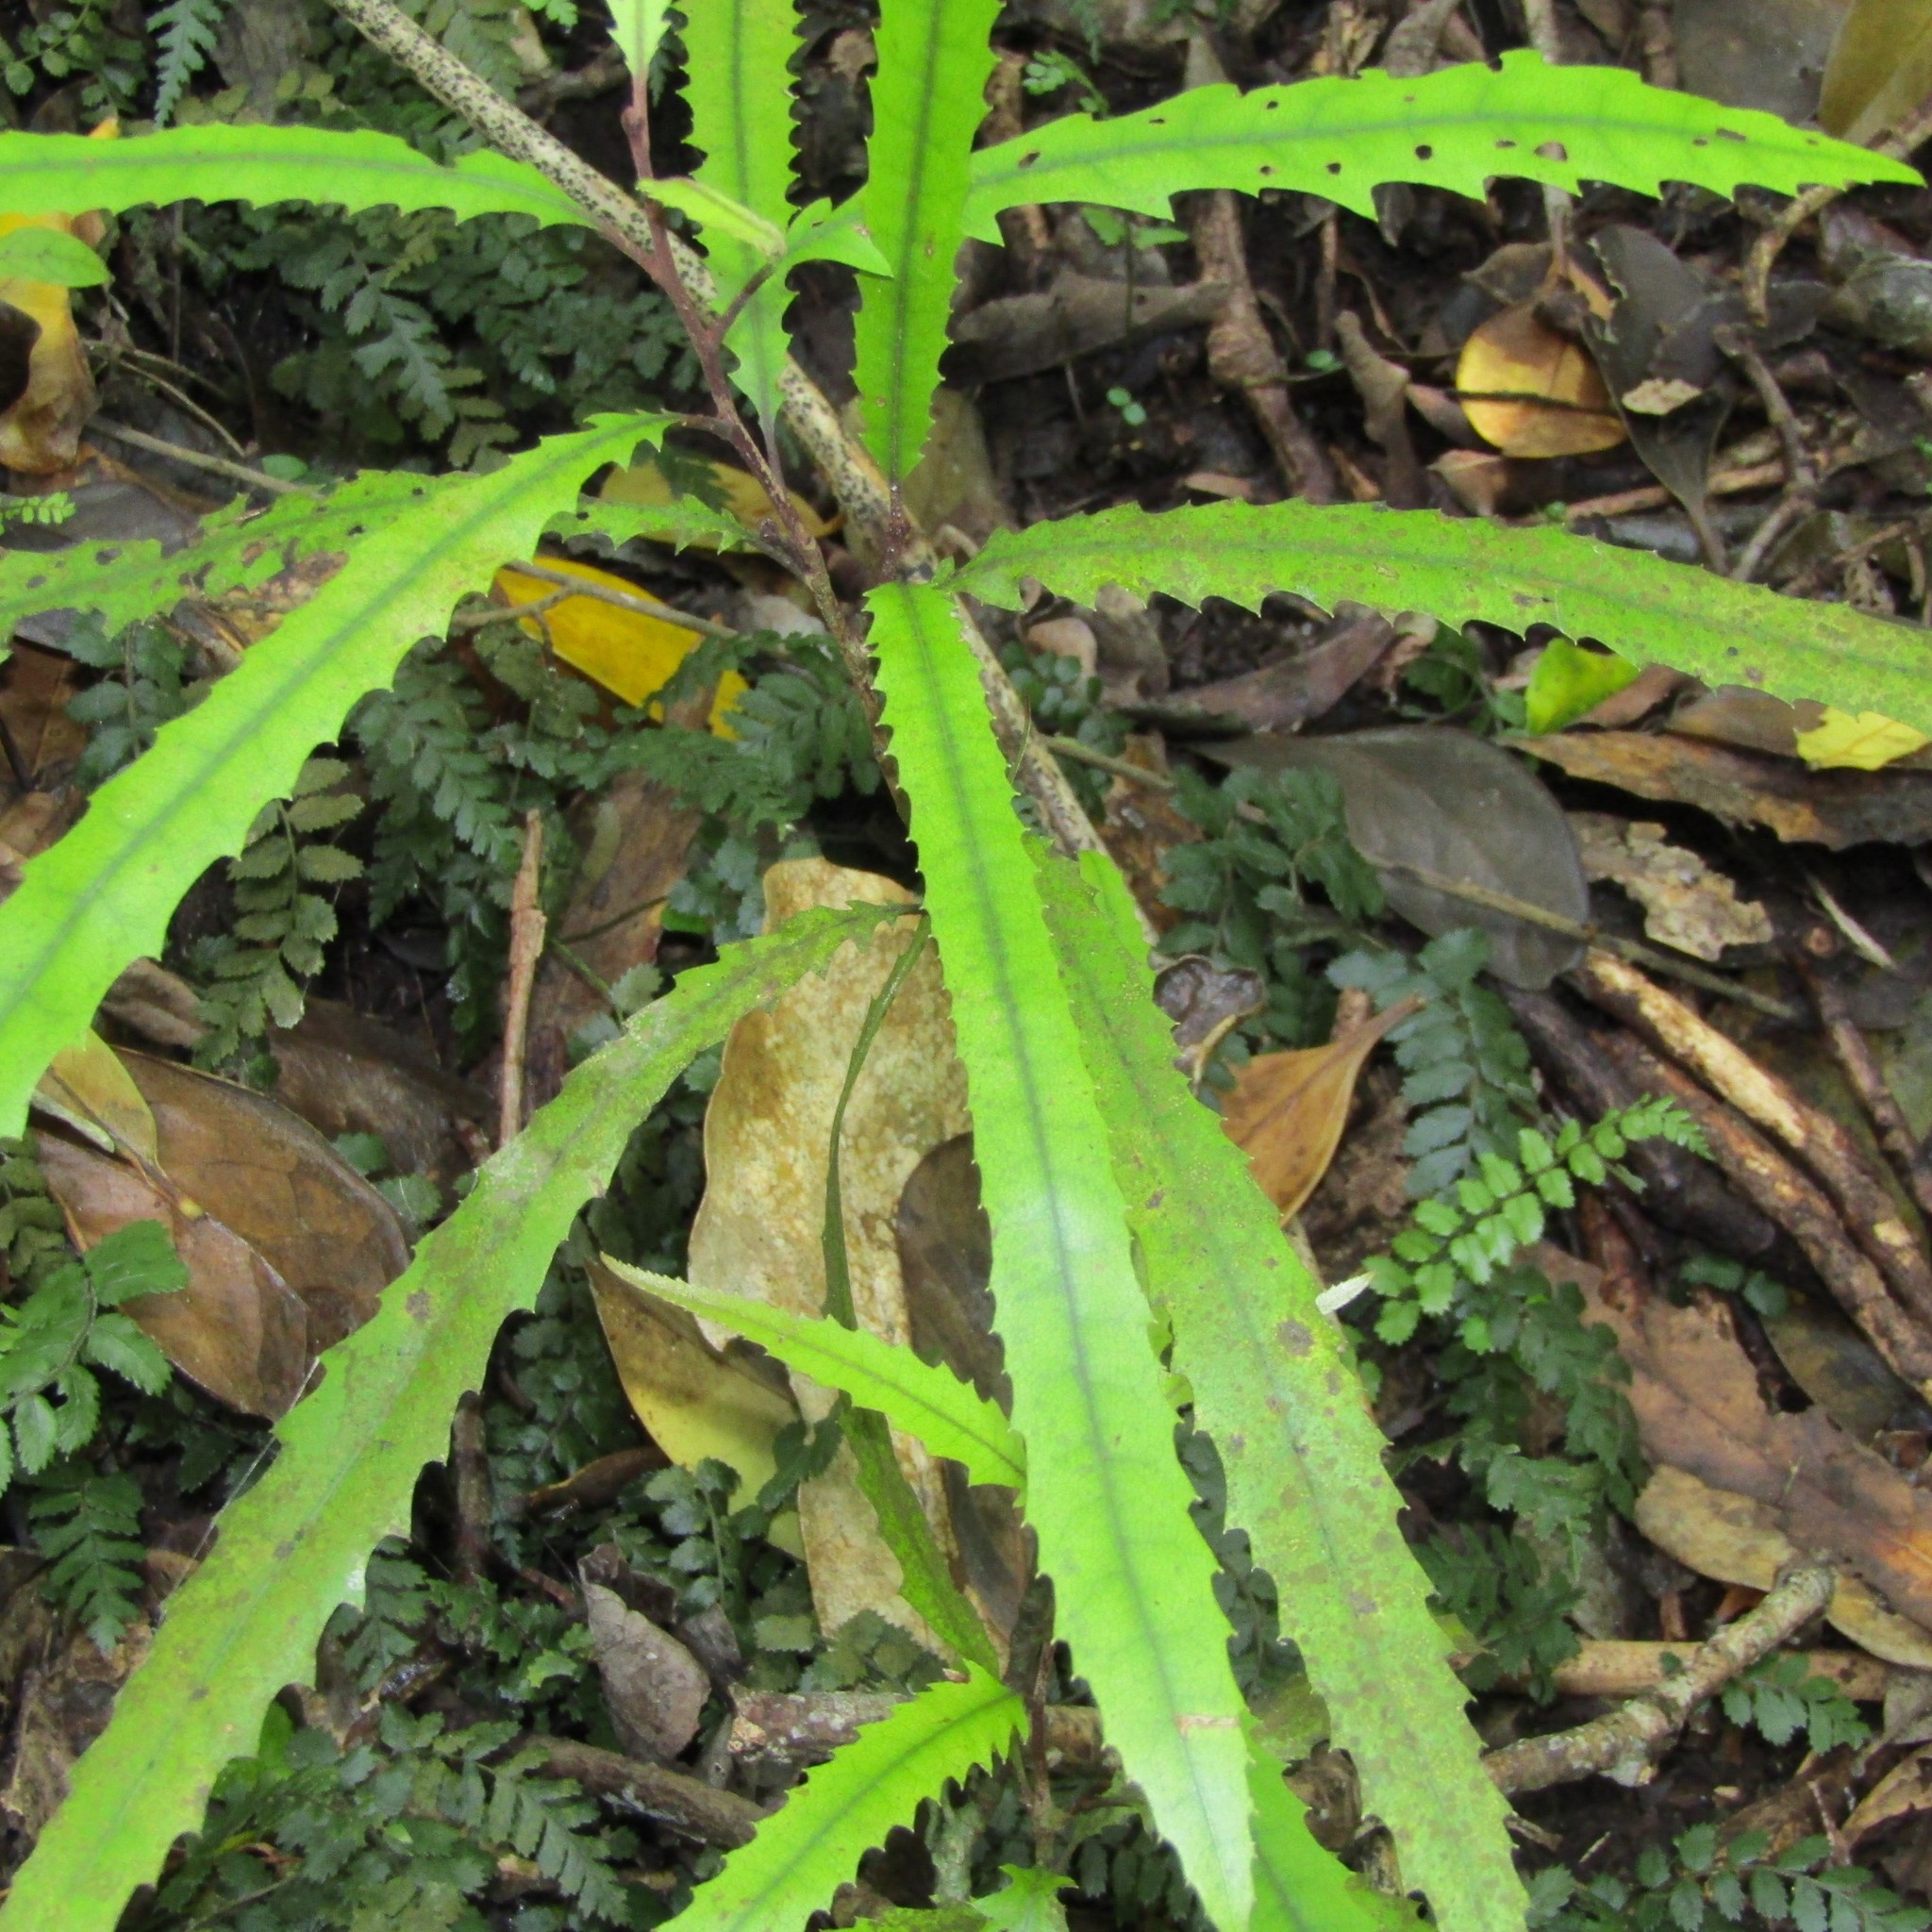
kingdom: Plantae
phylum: Tracheophyta
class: Magnoliopsida
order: Proteales
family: Proteaceae
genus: Knightia
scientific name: Knightia excelsa
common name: New zealand-honeysuckle
